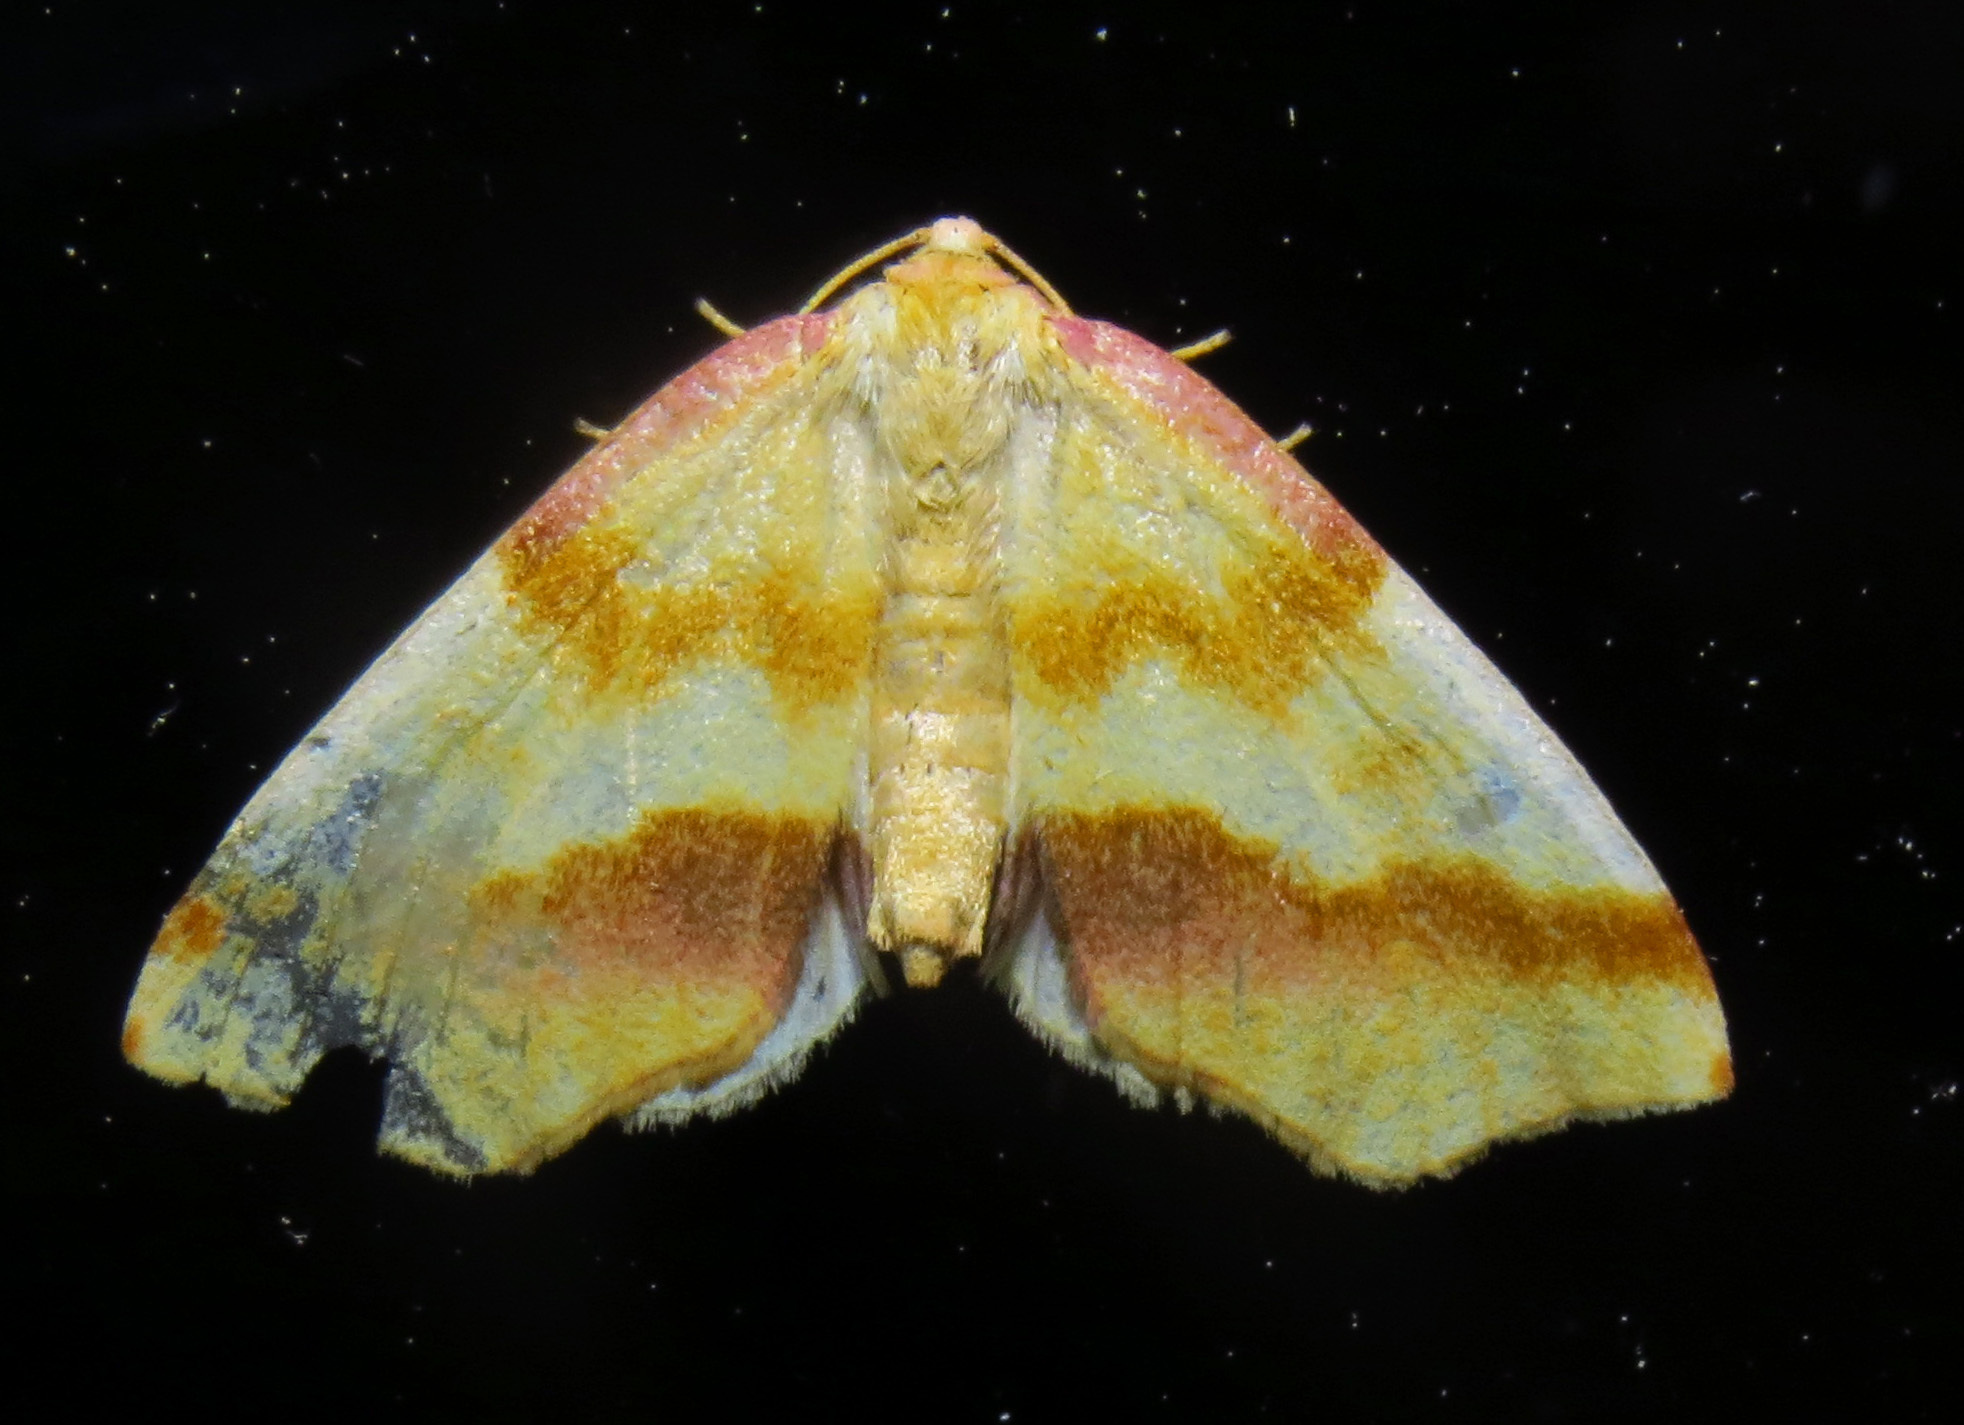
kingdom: Animalia
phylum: Arthropoda
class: Insecta
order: Lepidoptera
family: Geometridae
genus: Plagodis
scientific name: Plagodis serinaria
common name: Lemon plagodis
